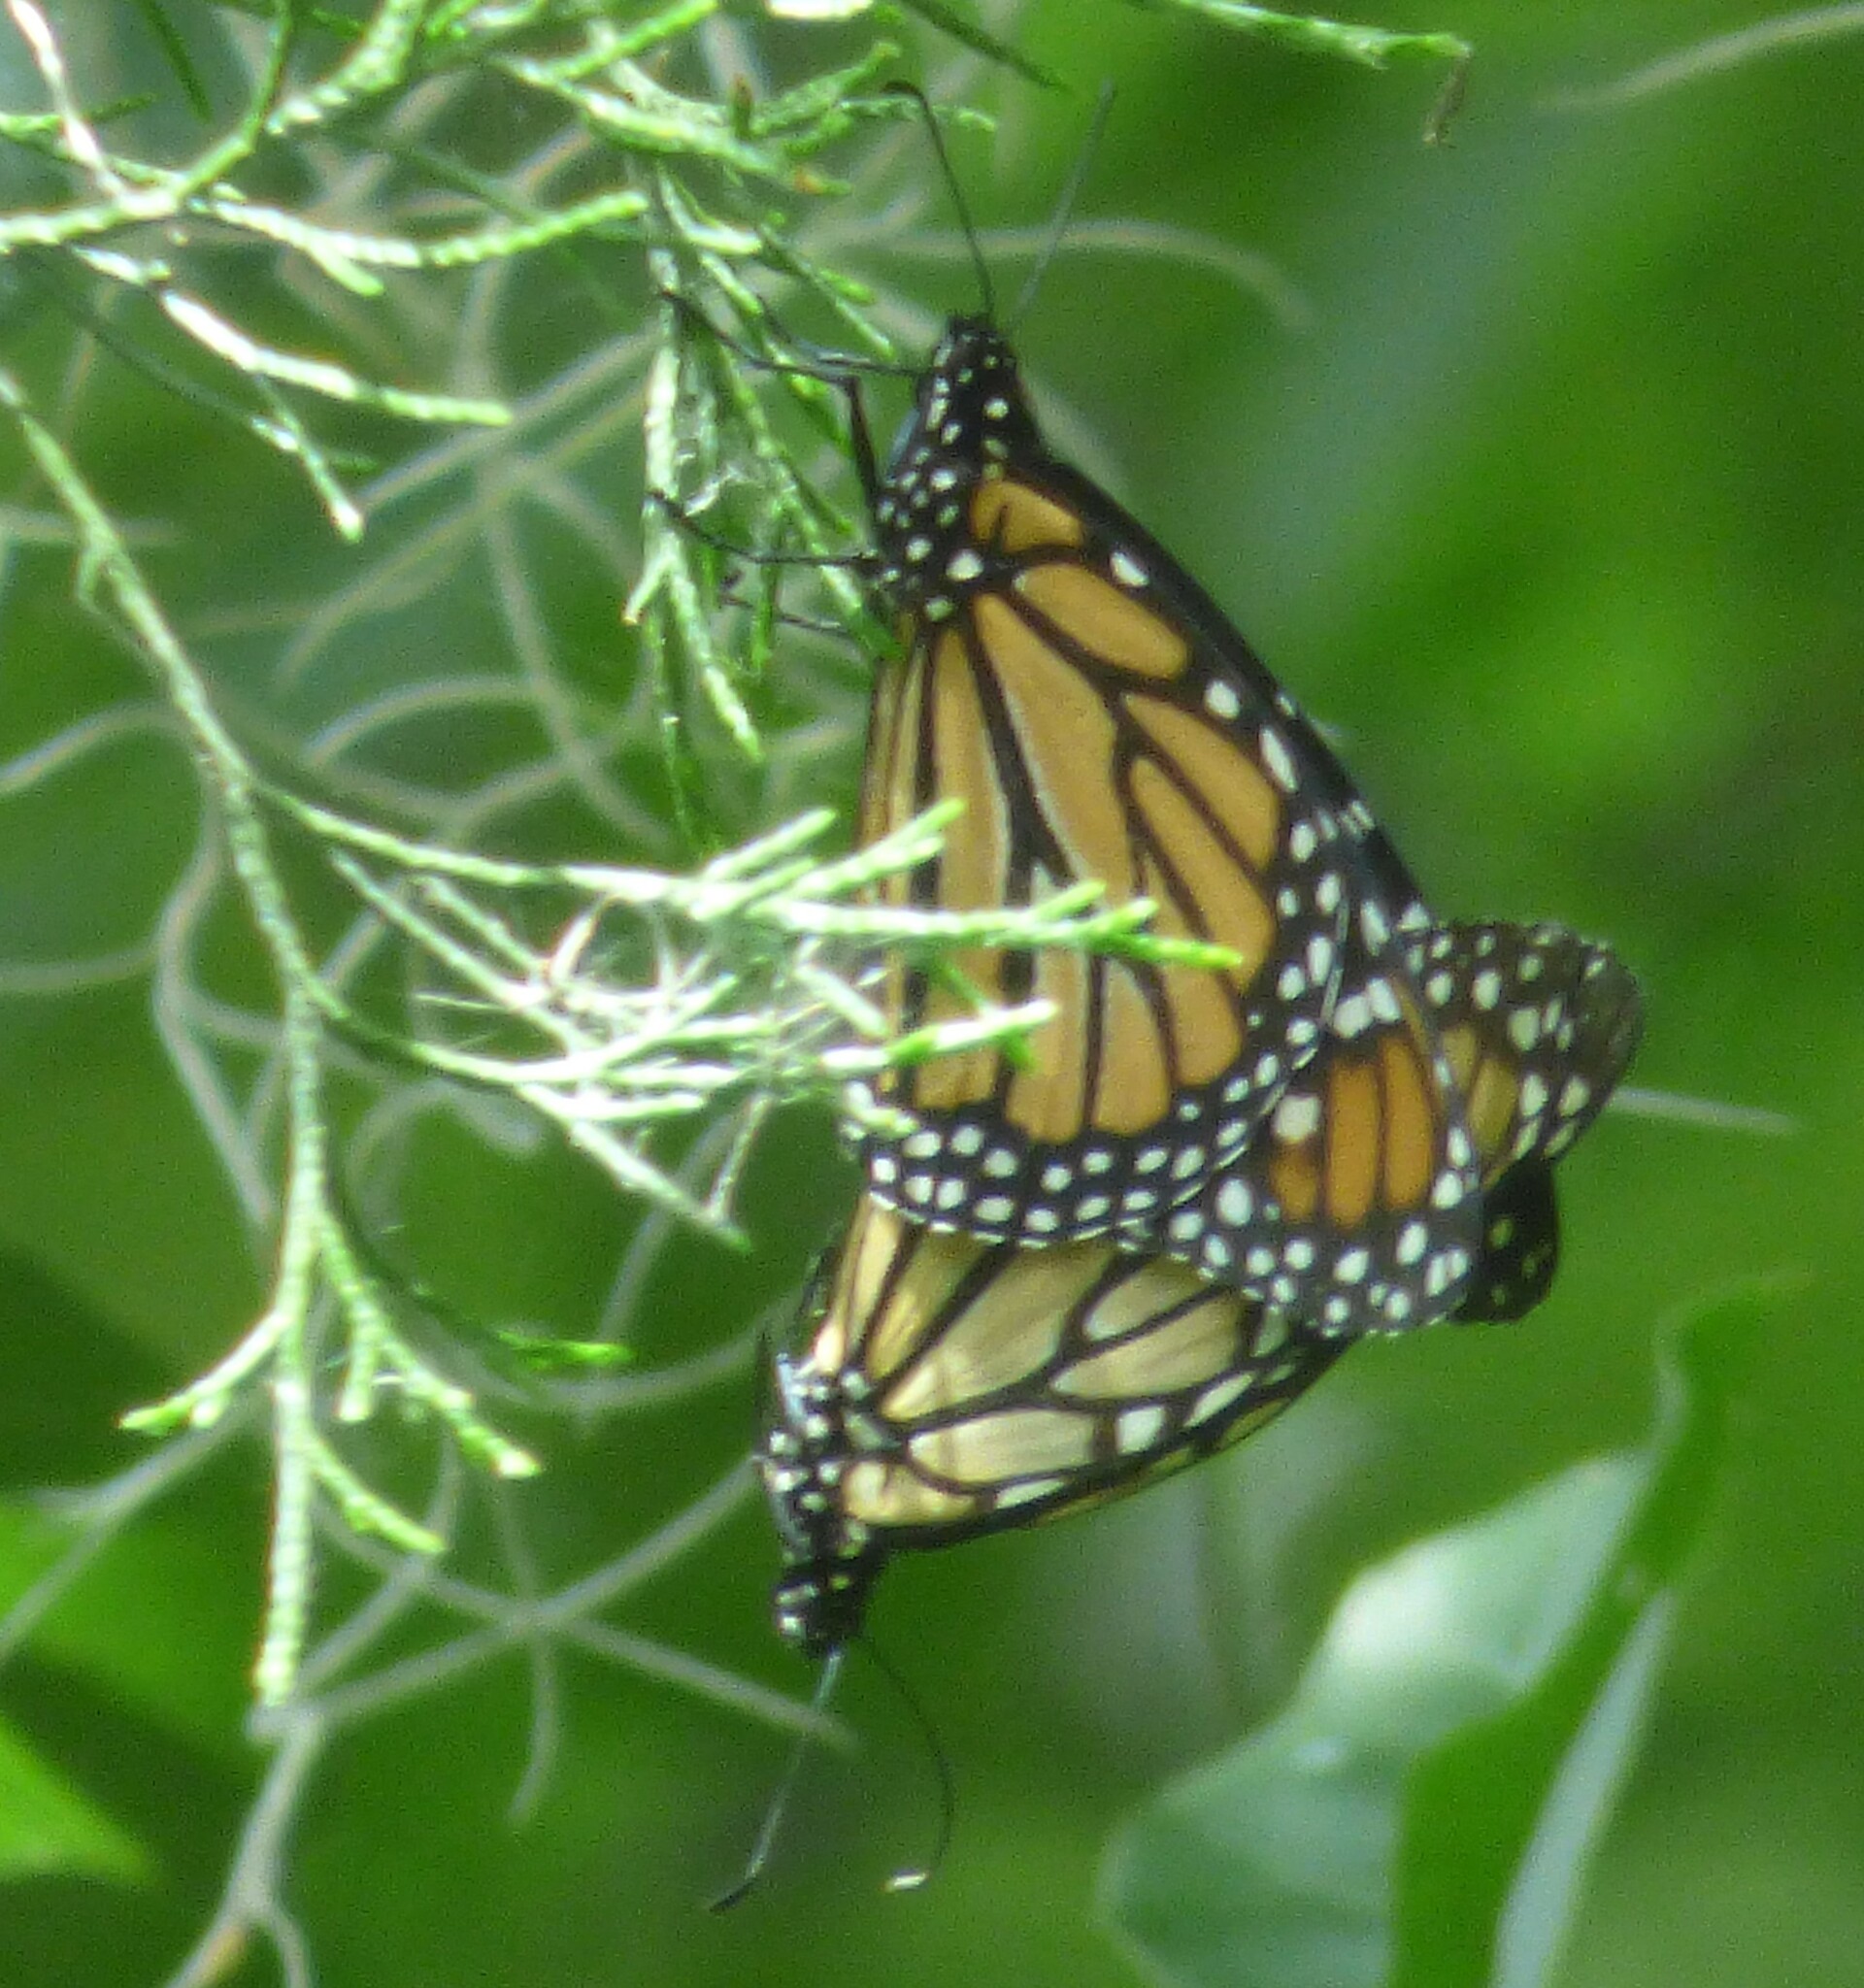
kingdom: Animalia
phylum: Arthropoda
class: Insecta
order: Lepidoptera
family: Nymphalidae
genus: Danaus
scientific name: Danaus plexippus
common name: Monarch
